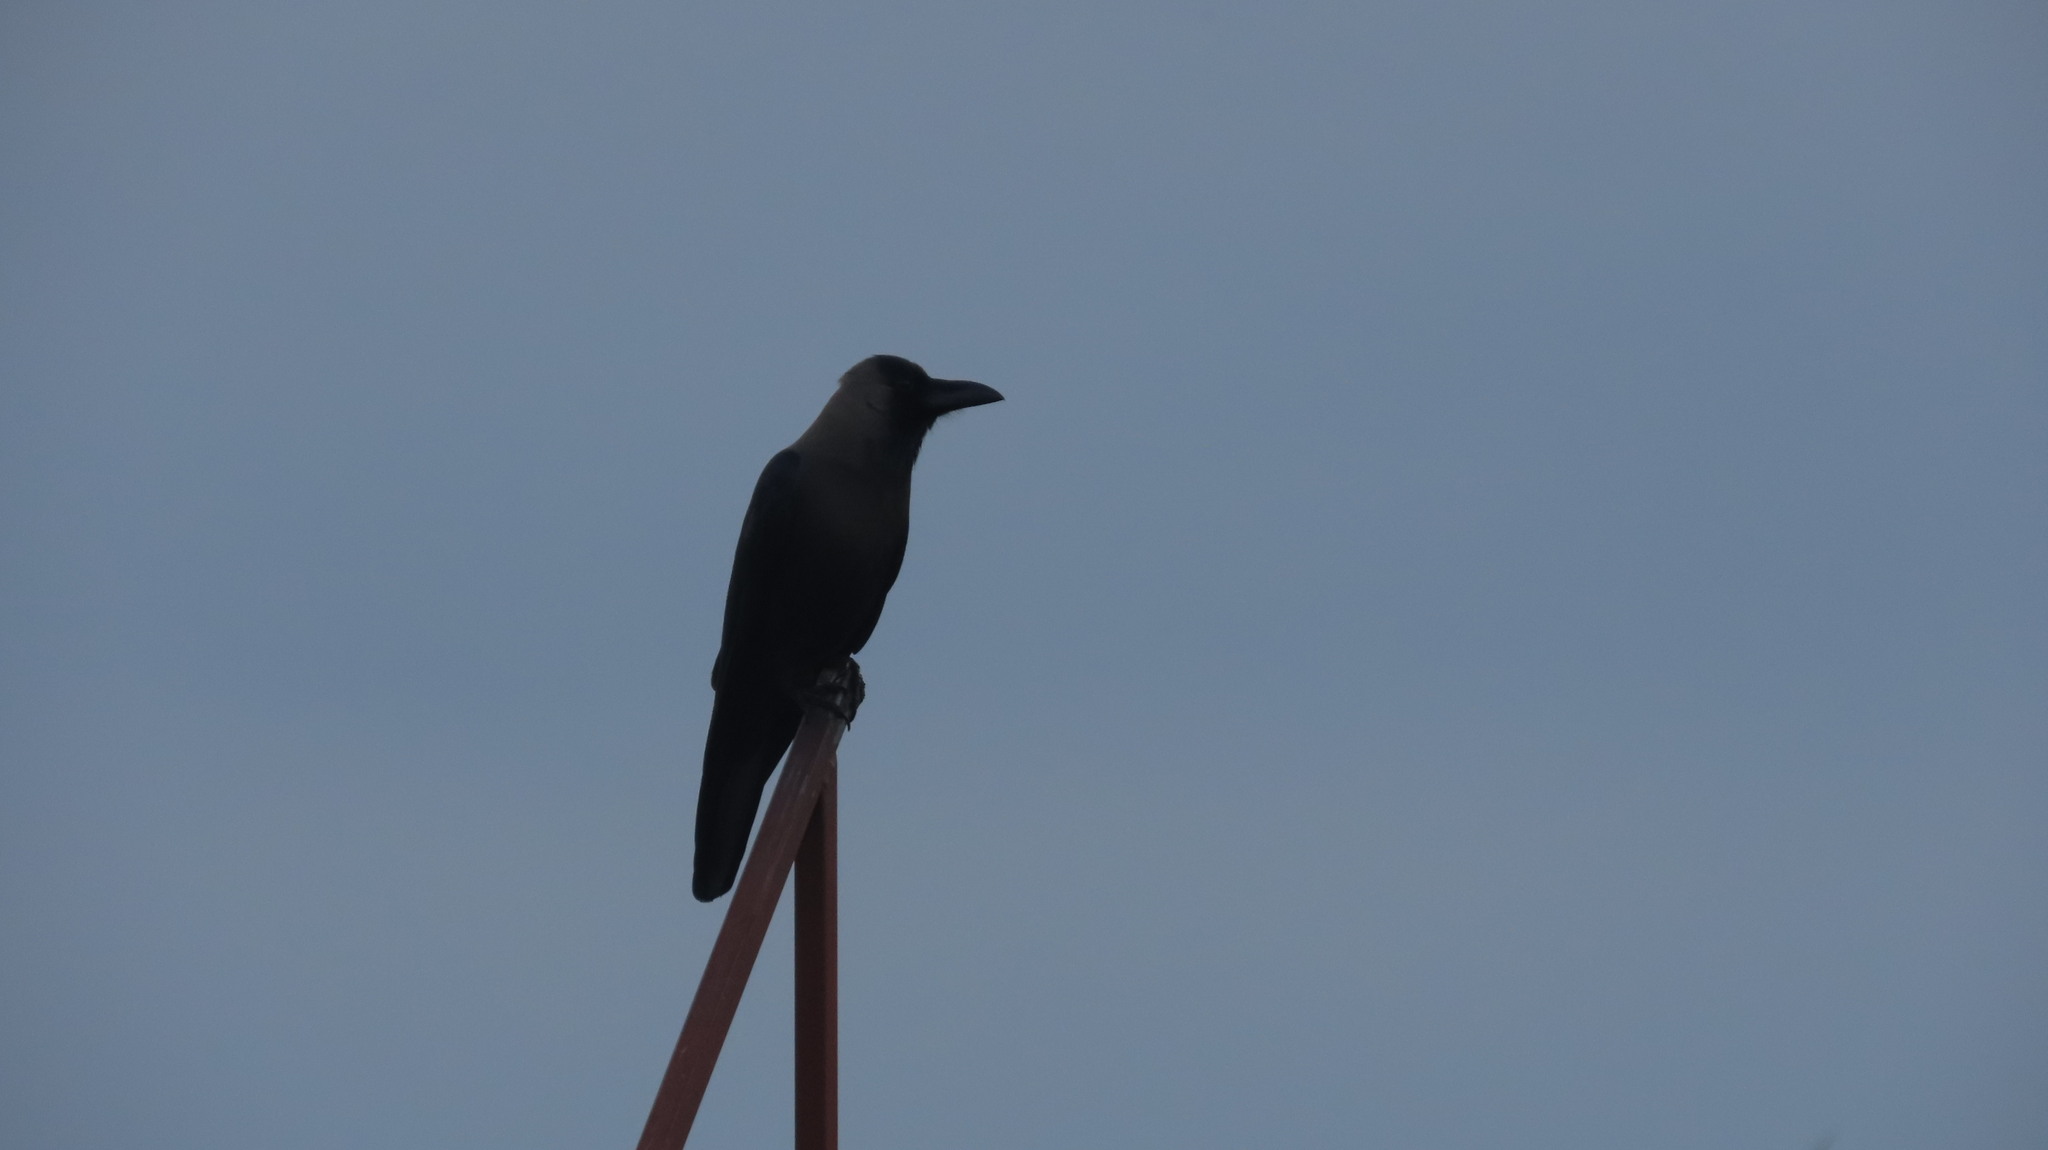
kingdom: Animalia
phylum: Chordata
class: Aves
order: Passeriformes
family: Corvidae
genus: Corvus
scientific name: Corvus splendens
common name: House crow
